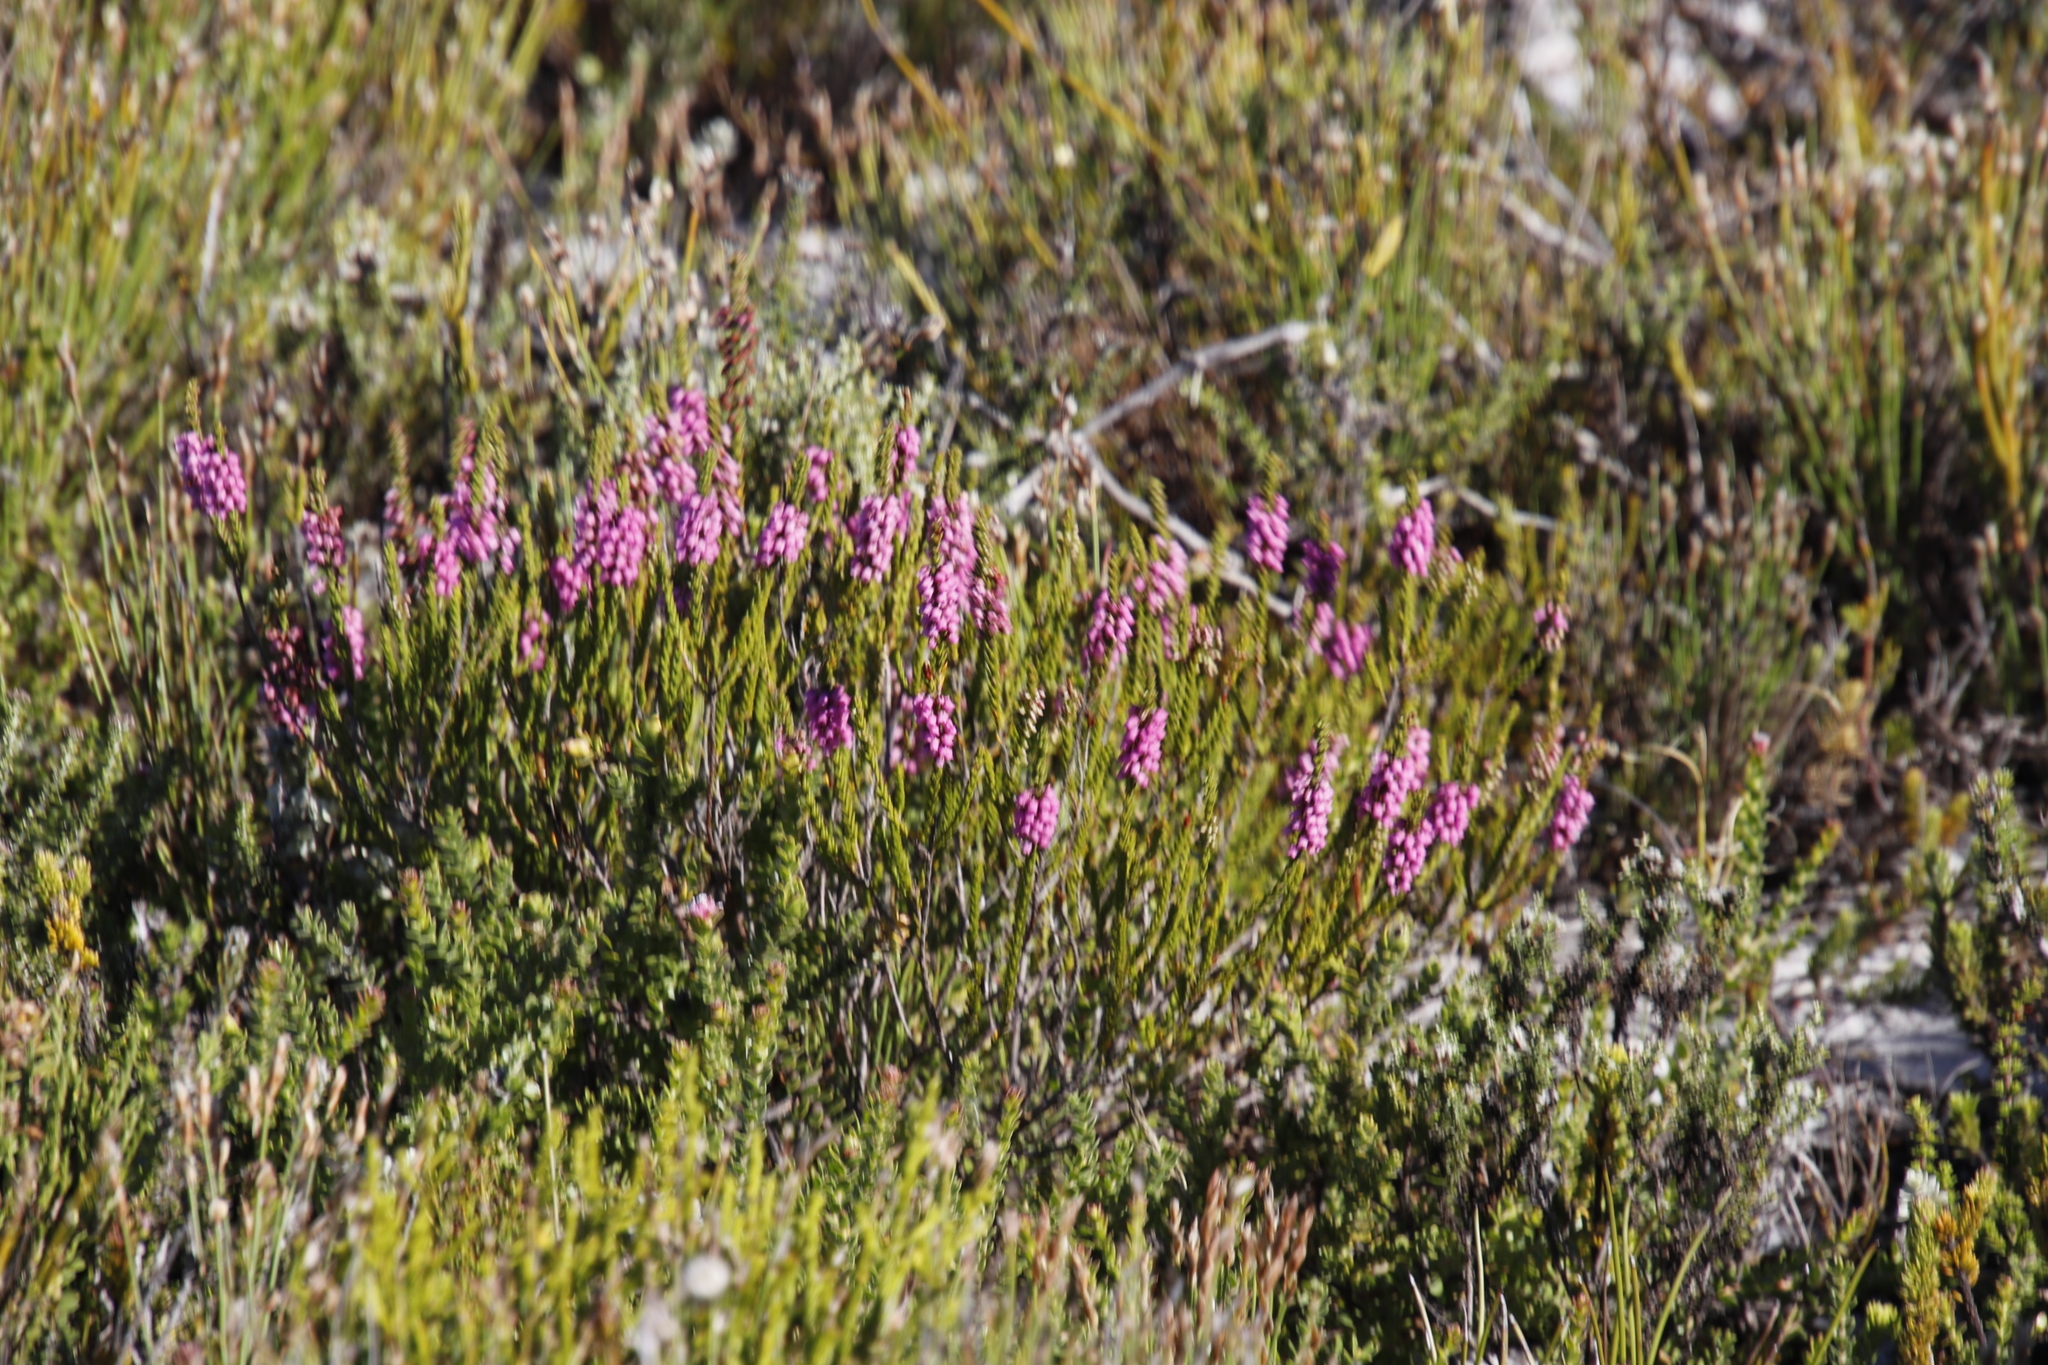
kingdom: Plantae
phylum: Tracheophyta
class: Magnoliopsida
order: Ericales
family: Ericaceae
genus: Erica
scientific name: Erica pulchella
